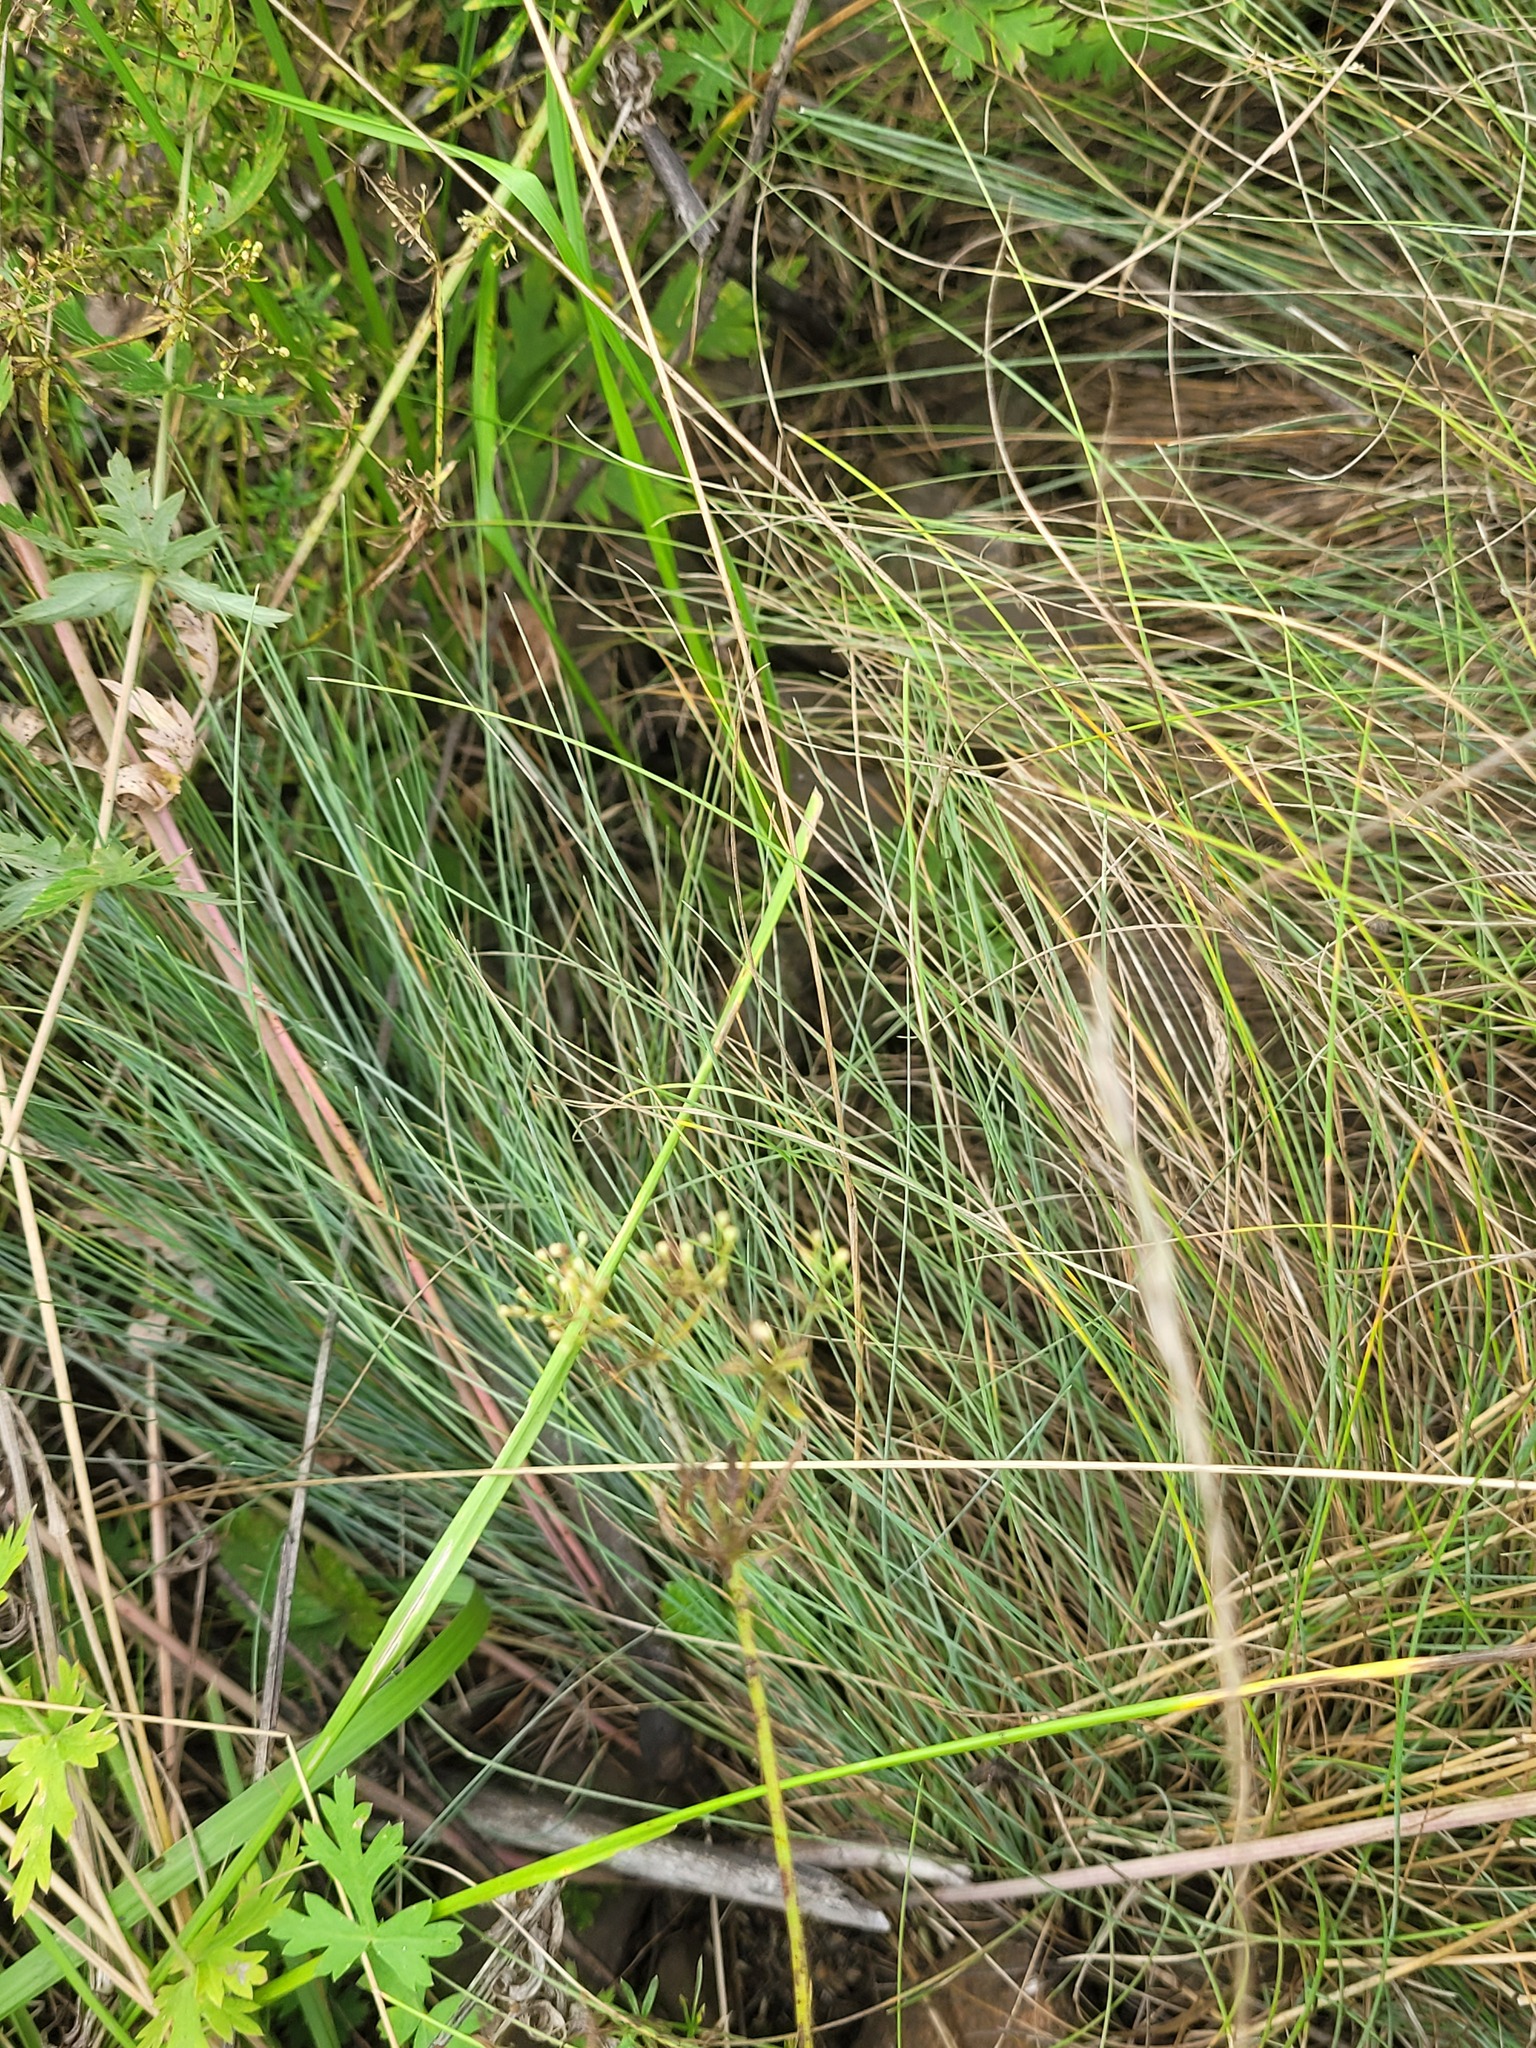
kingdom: Plantae
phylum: Tracheophyta
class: Liliopsida
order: Poales
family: Poaceae
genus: Festuca
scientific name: Festuca valesiaca
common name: Volga fescue
